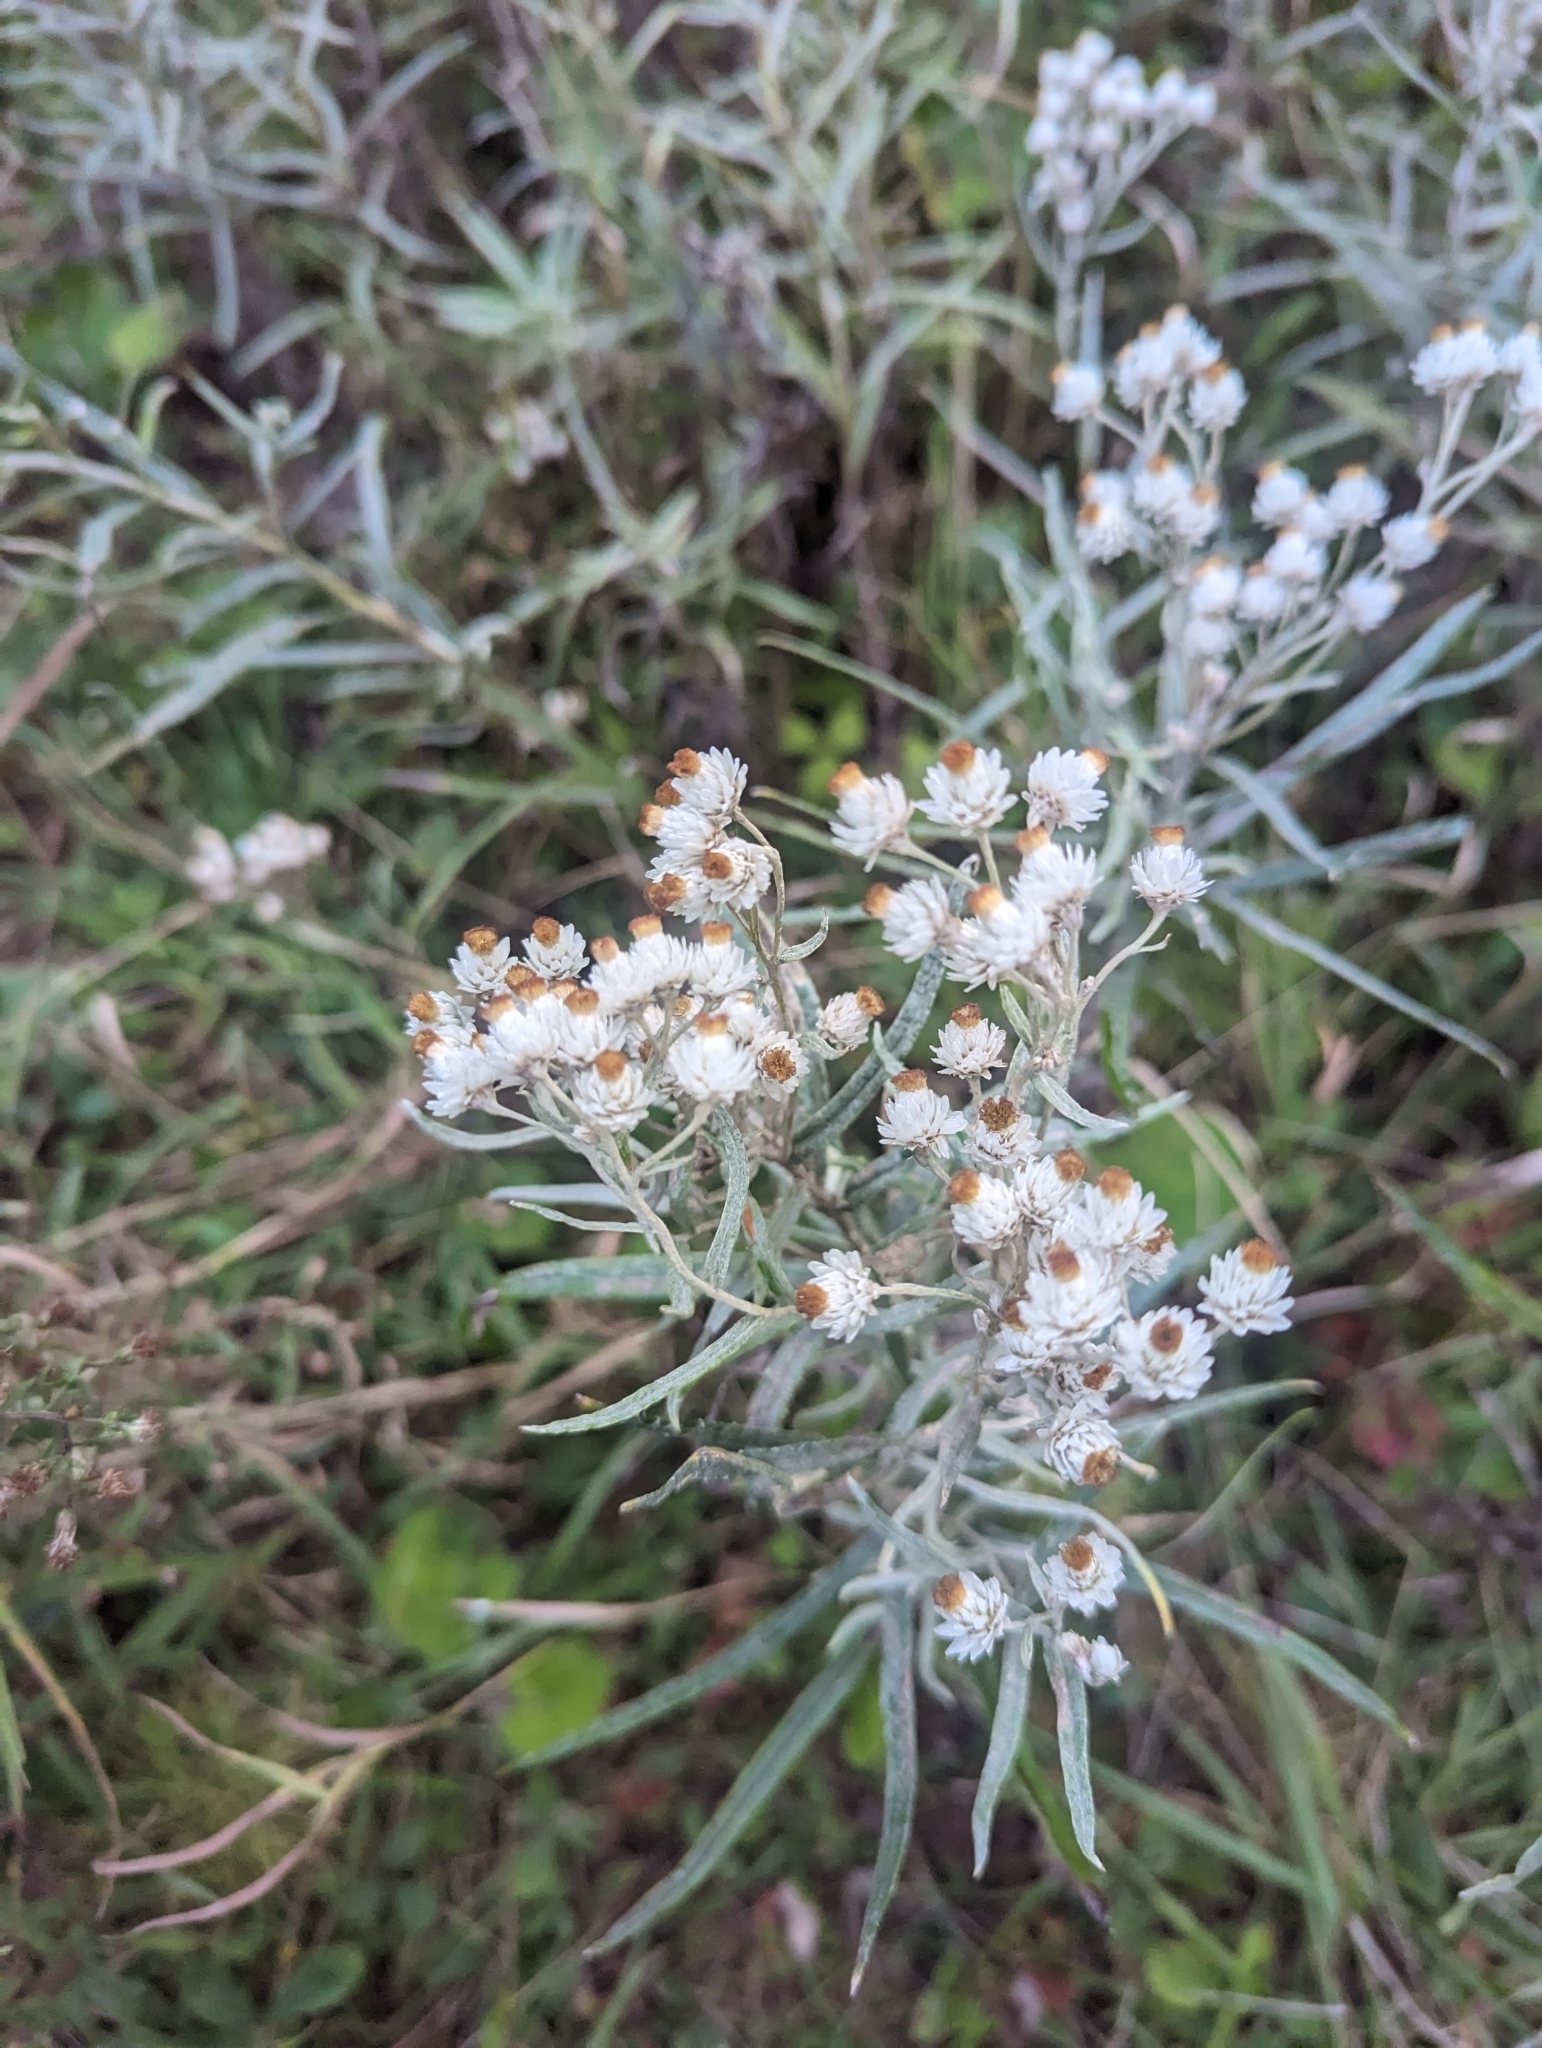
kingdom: Plantae
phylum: Tracheophyta
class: Magnoliopsida
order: Asterales
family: Asteraceae
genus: Anaphalis
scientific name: Anaphalis margaritacea
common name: Pearly everlasting
